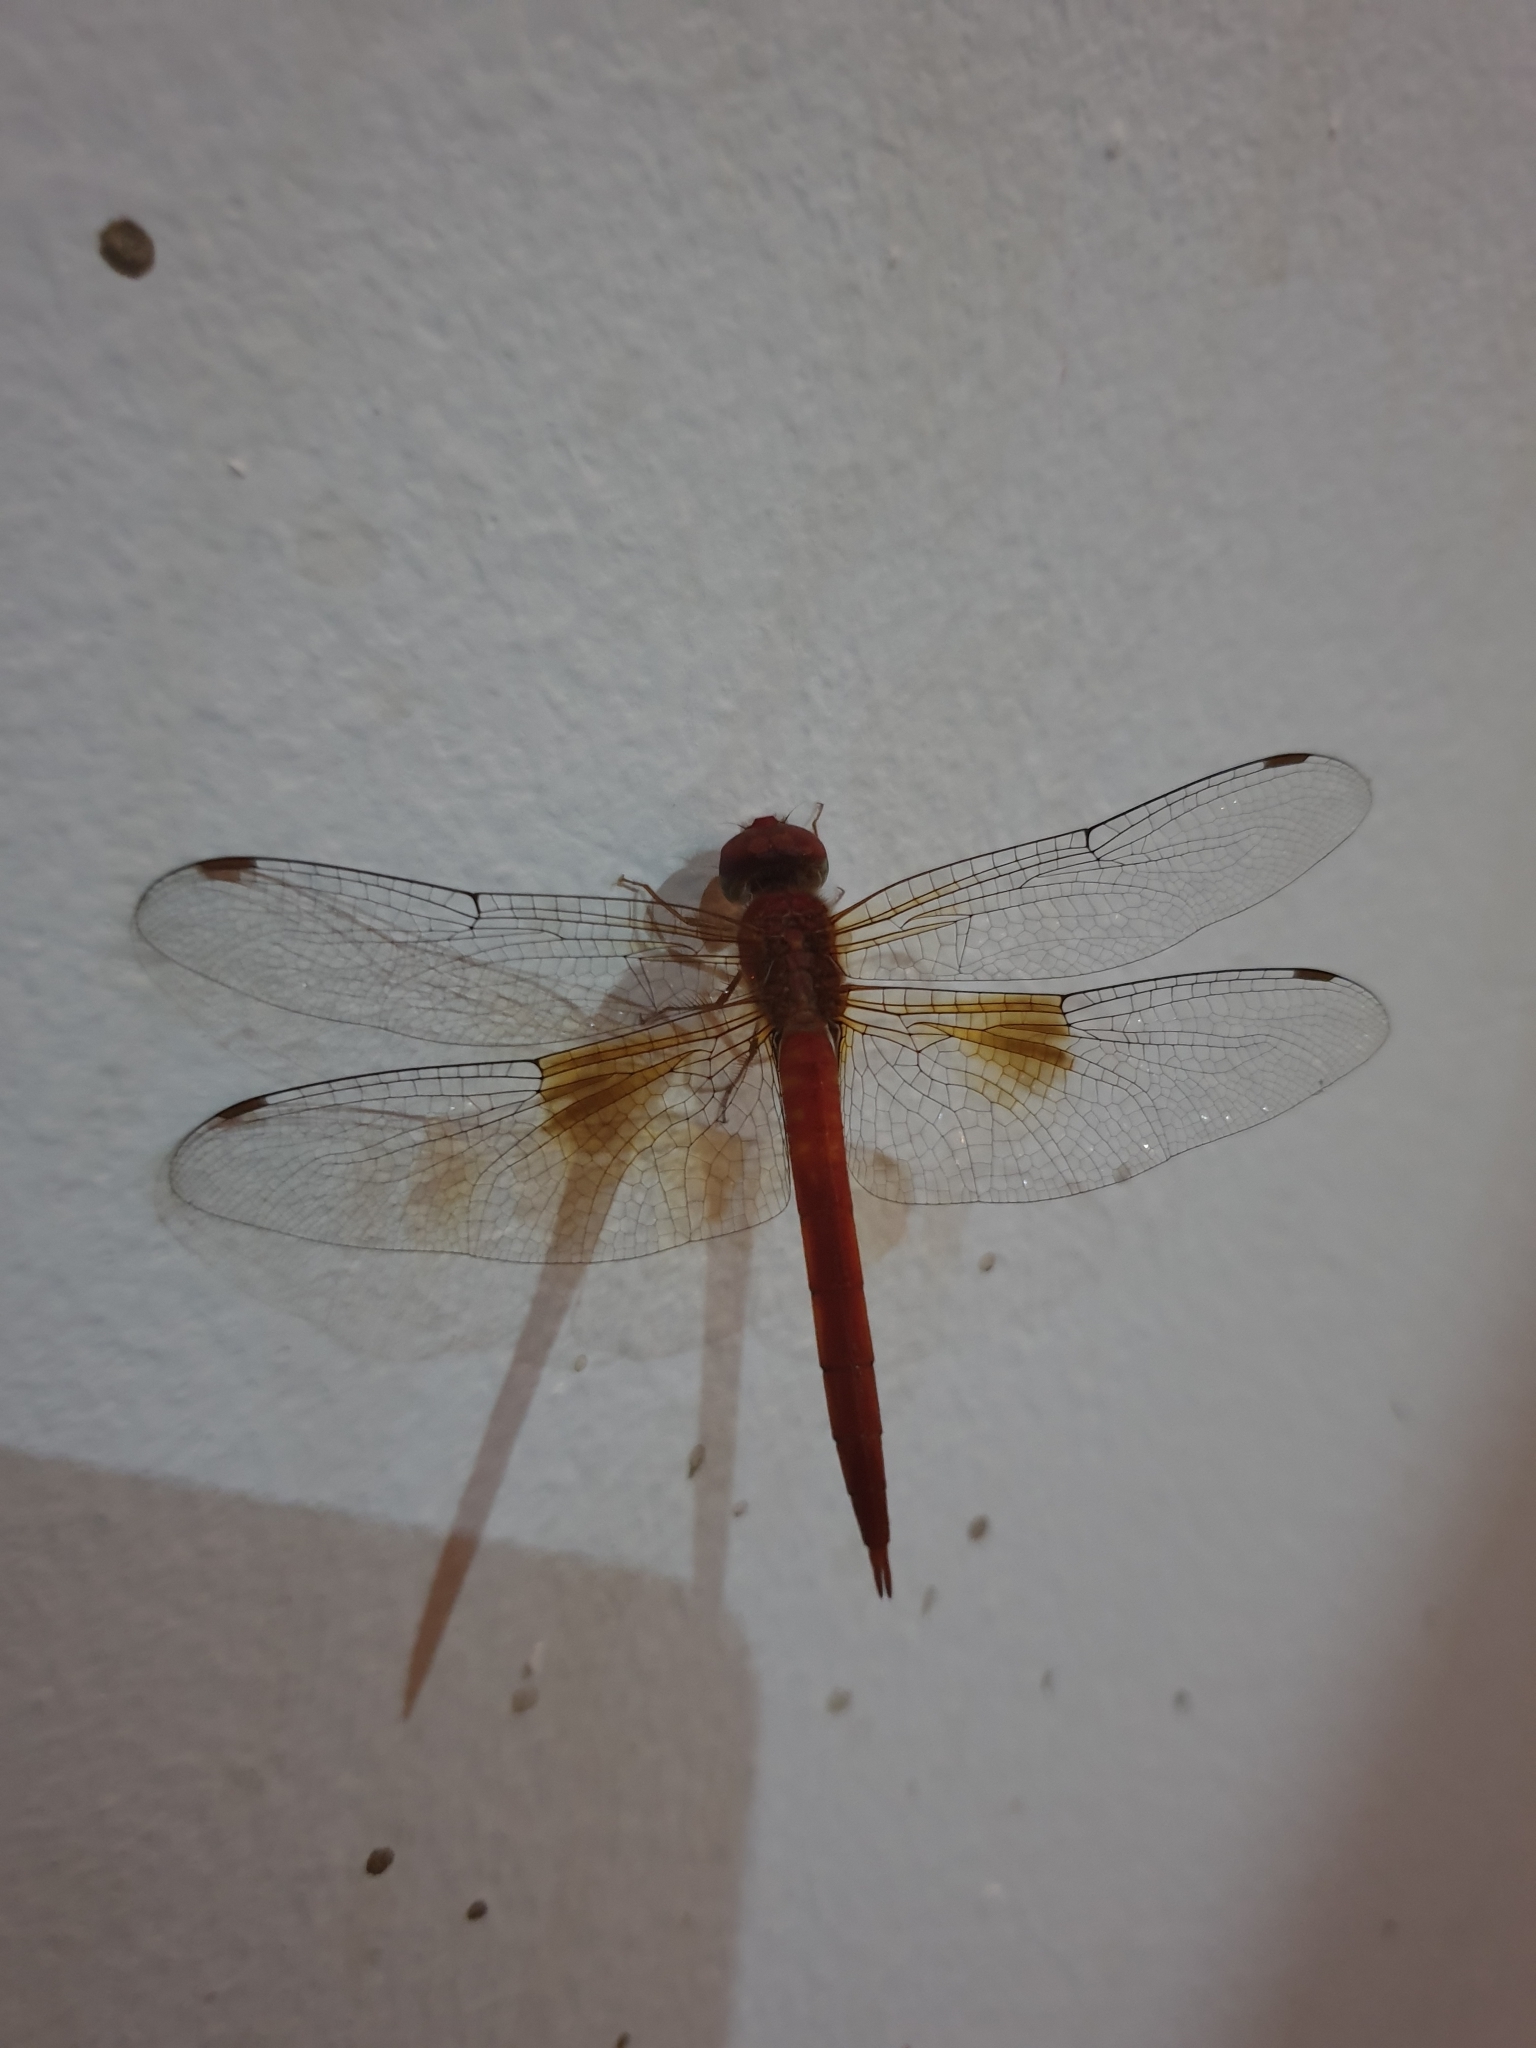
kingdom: Animalia
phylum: Arthropoda
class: Insecta
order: Odonata
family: Libellulidae
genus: Tholymis
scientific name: Tholymis tillarga
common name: Coral-tailed cloud wing
